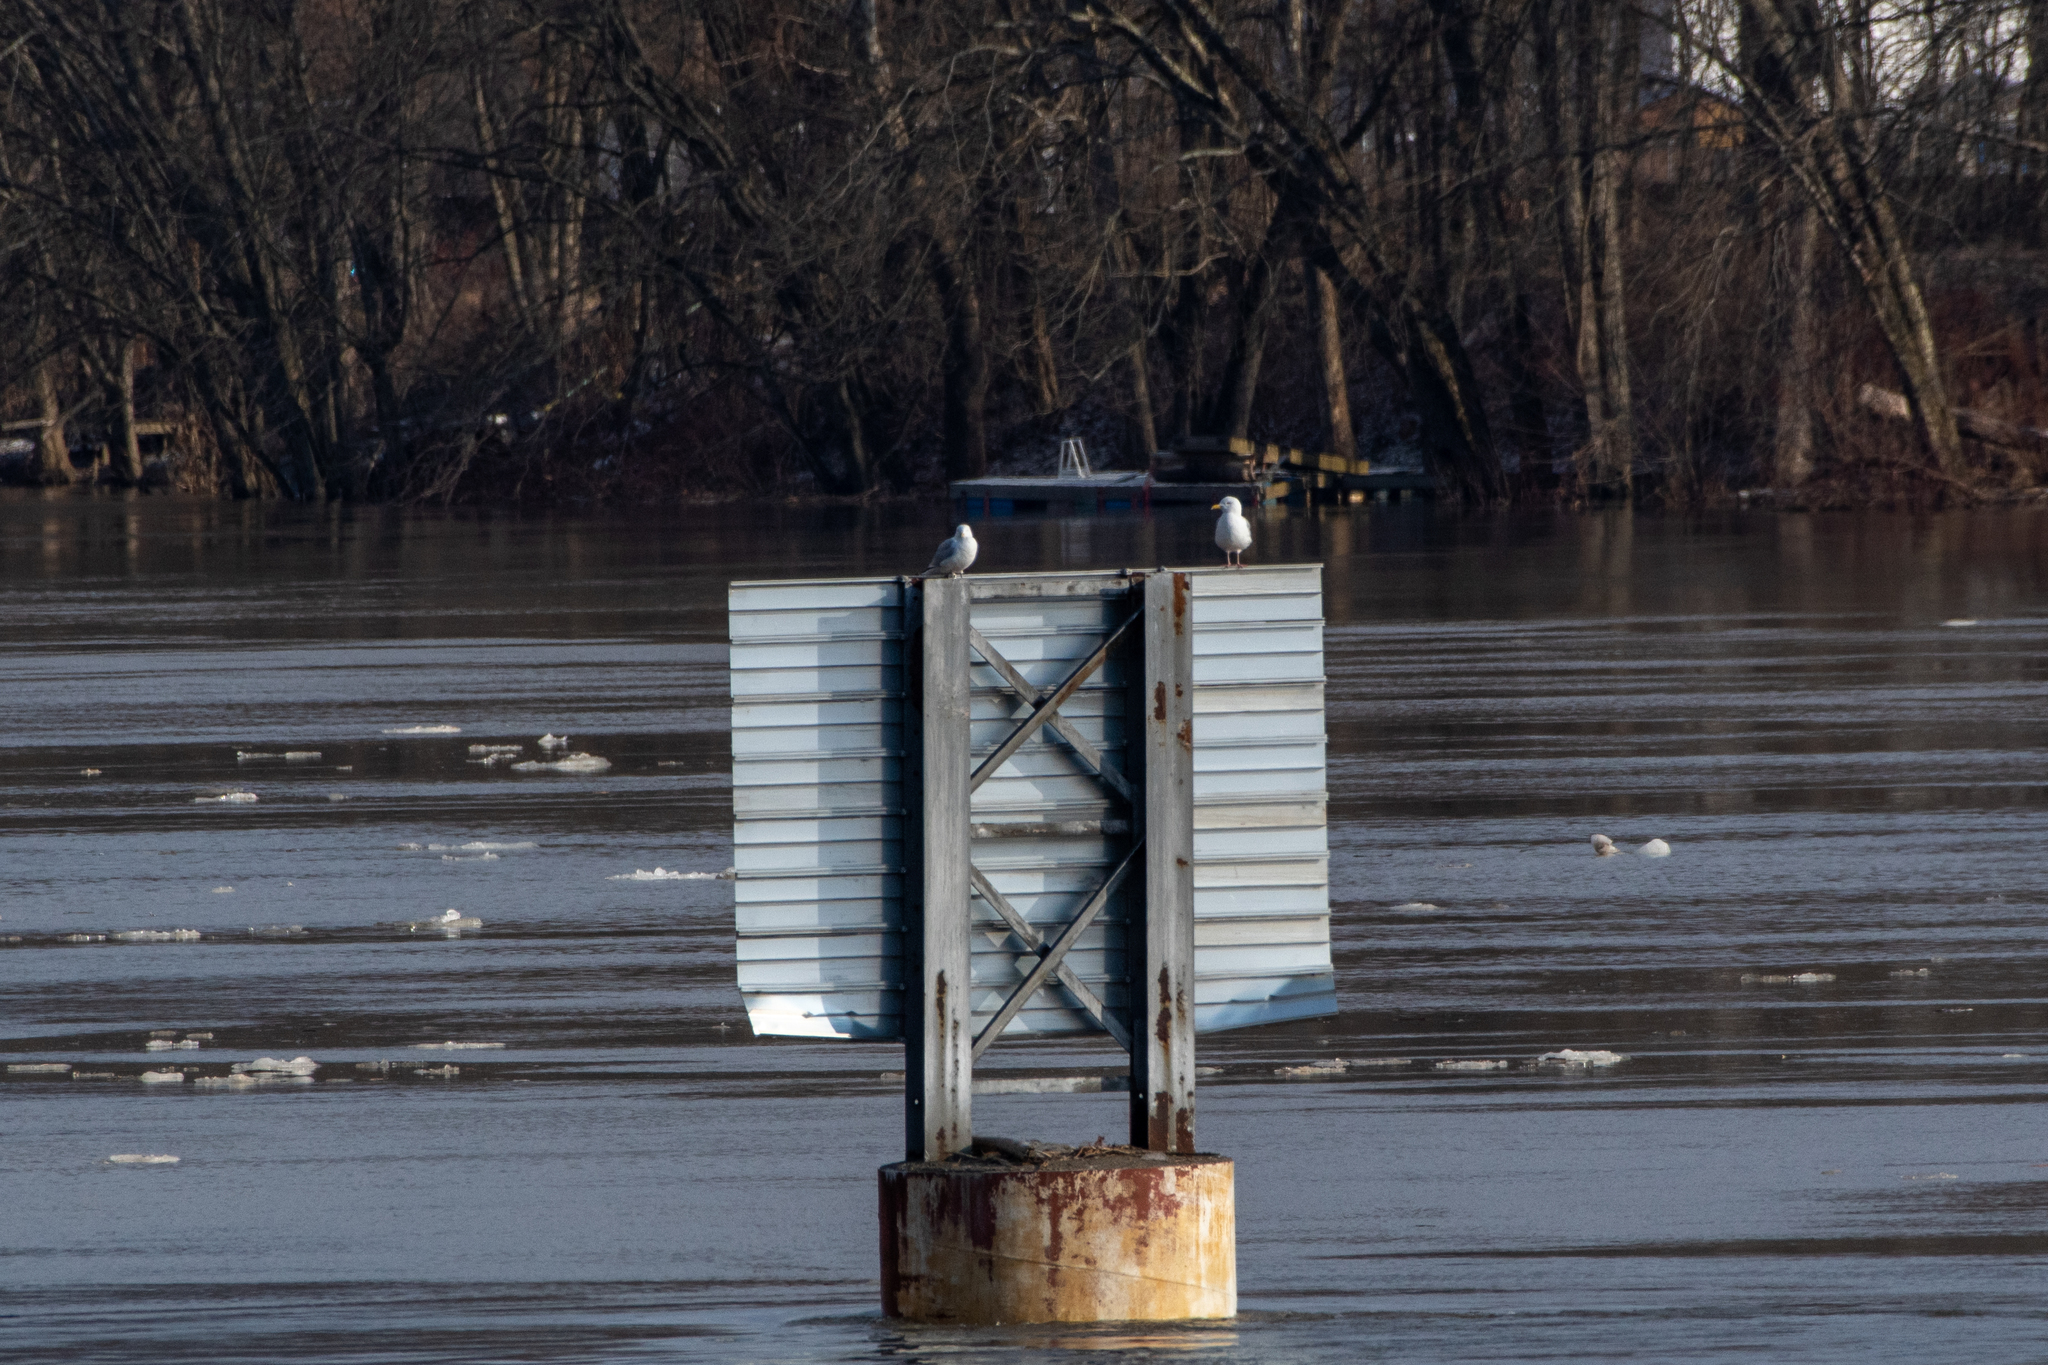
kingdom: Animalia
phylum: Chordata
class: Aves
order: Charadriiformes
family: Laridae
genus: Larus
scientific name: Larus argentatus
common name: Herring gull
